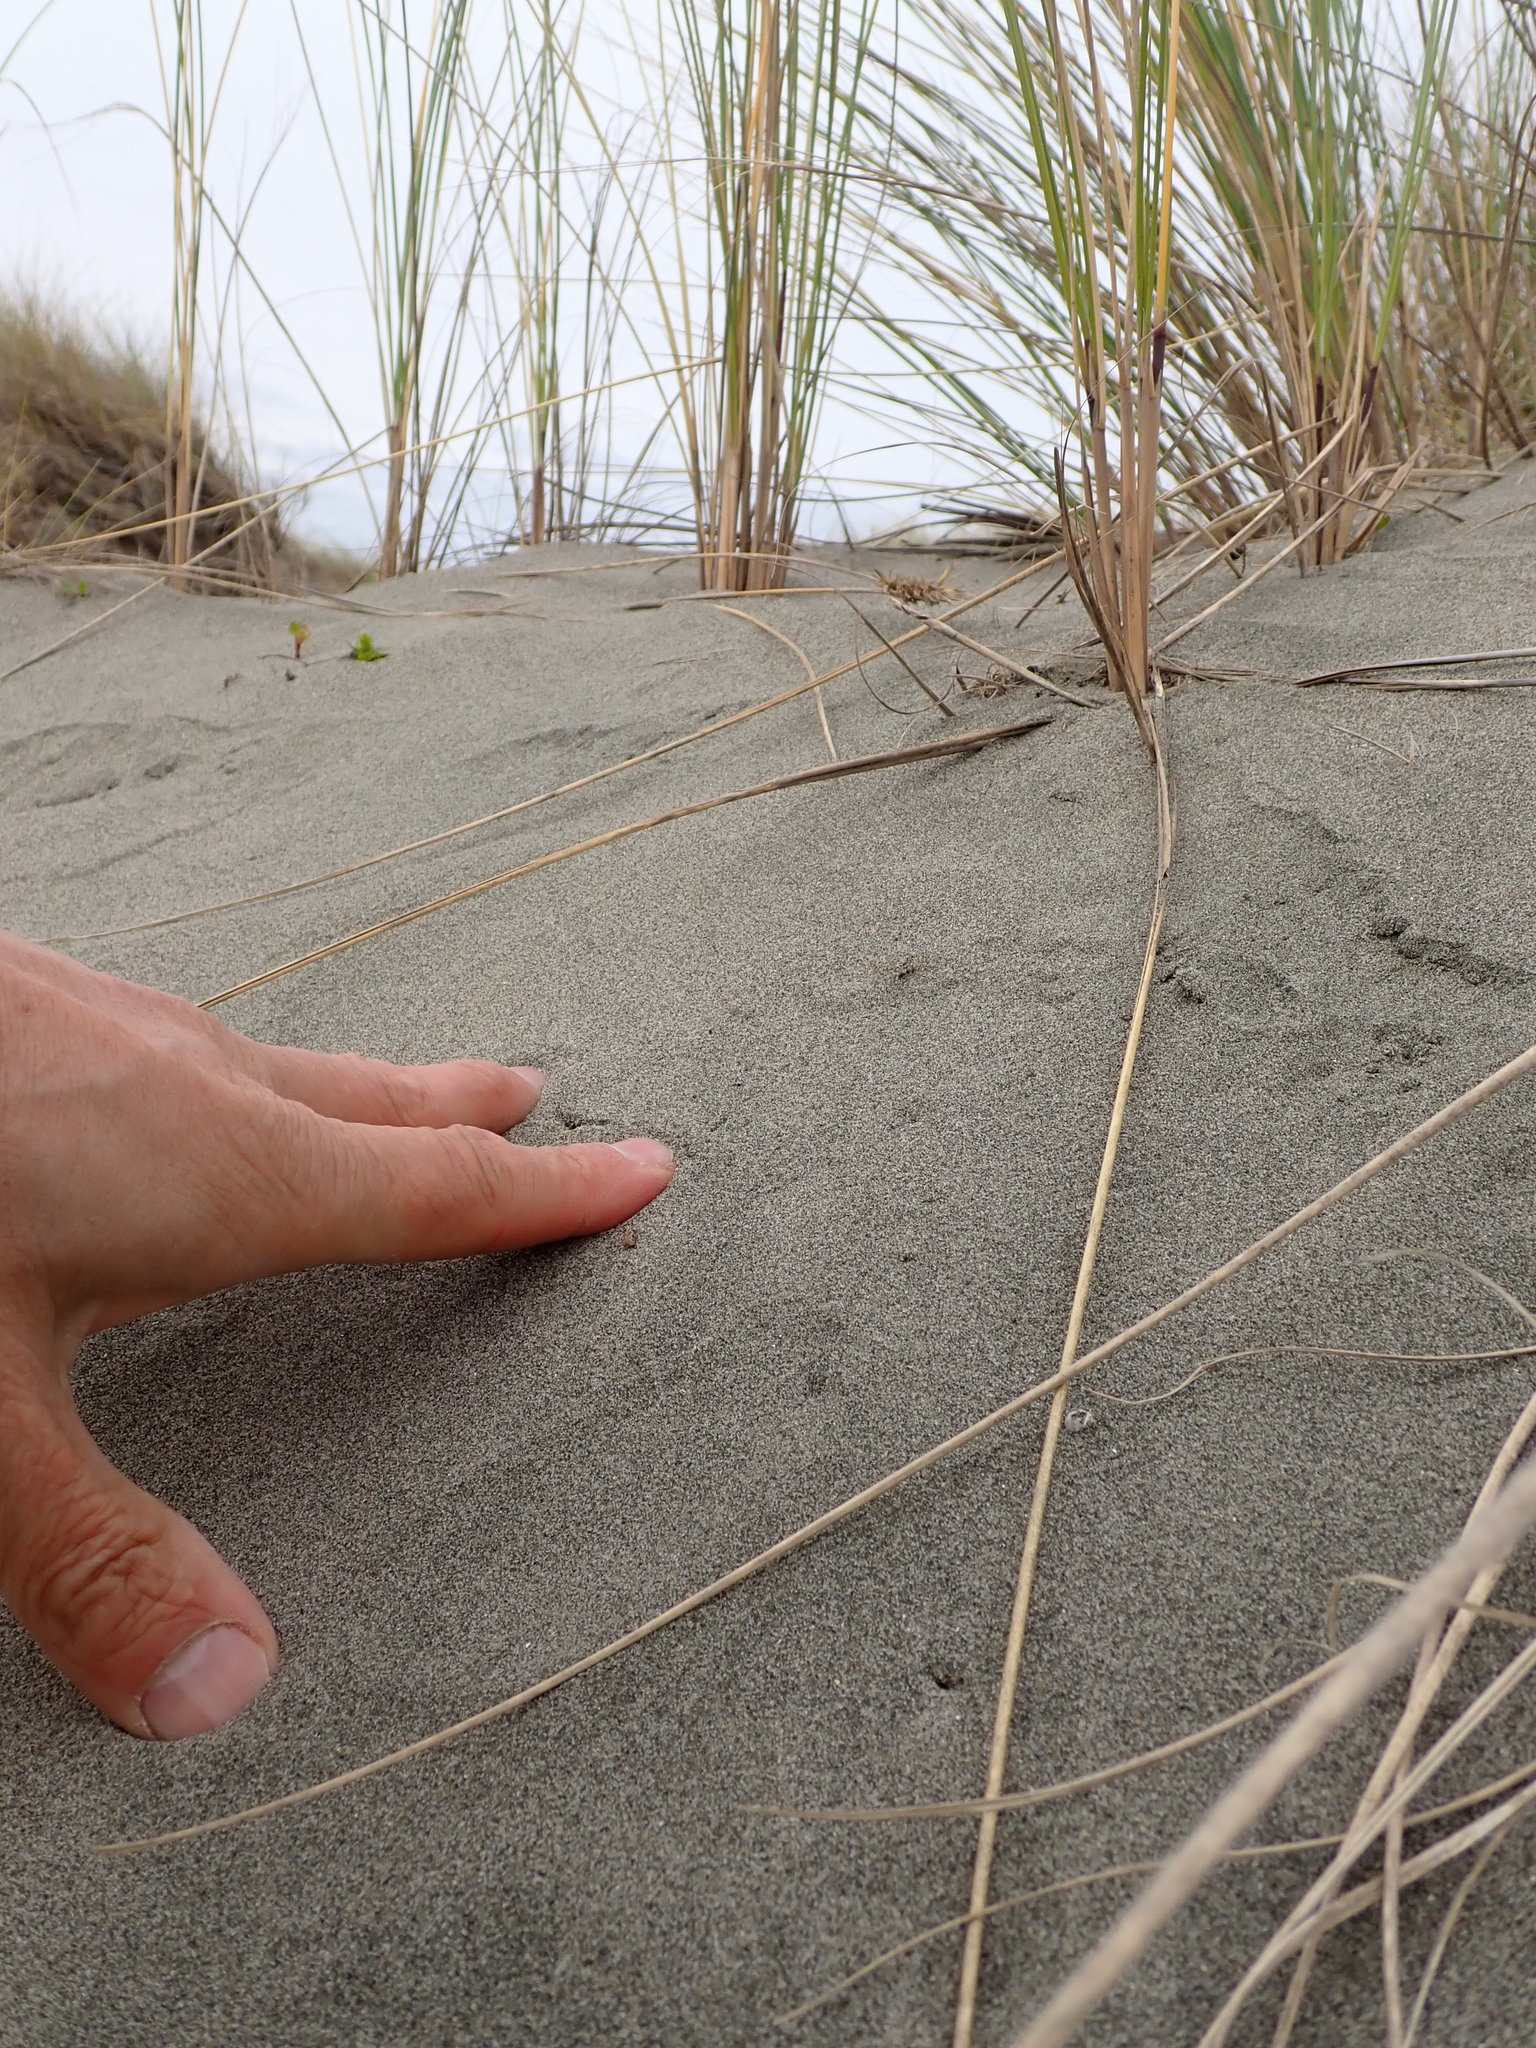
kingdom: Animalia
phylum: Arthropoda
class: Arachnida
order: Araneae
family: Lycosidae
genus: Anoteropsis
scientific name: Anoteropsis litoralis
